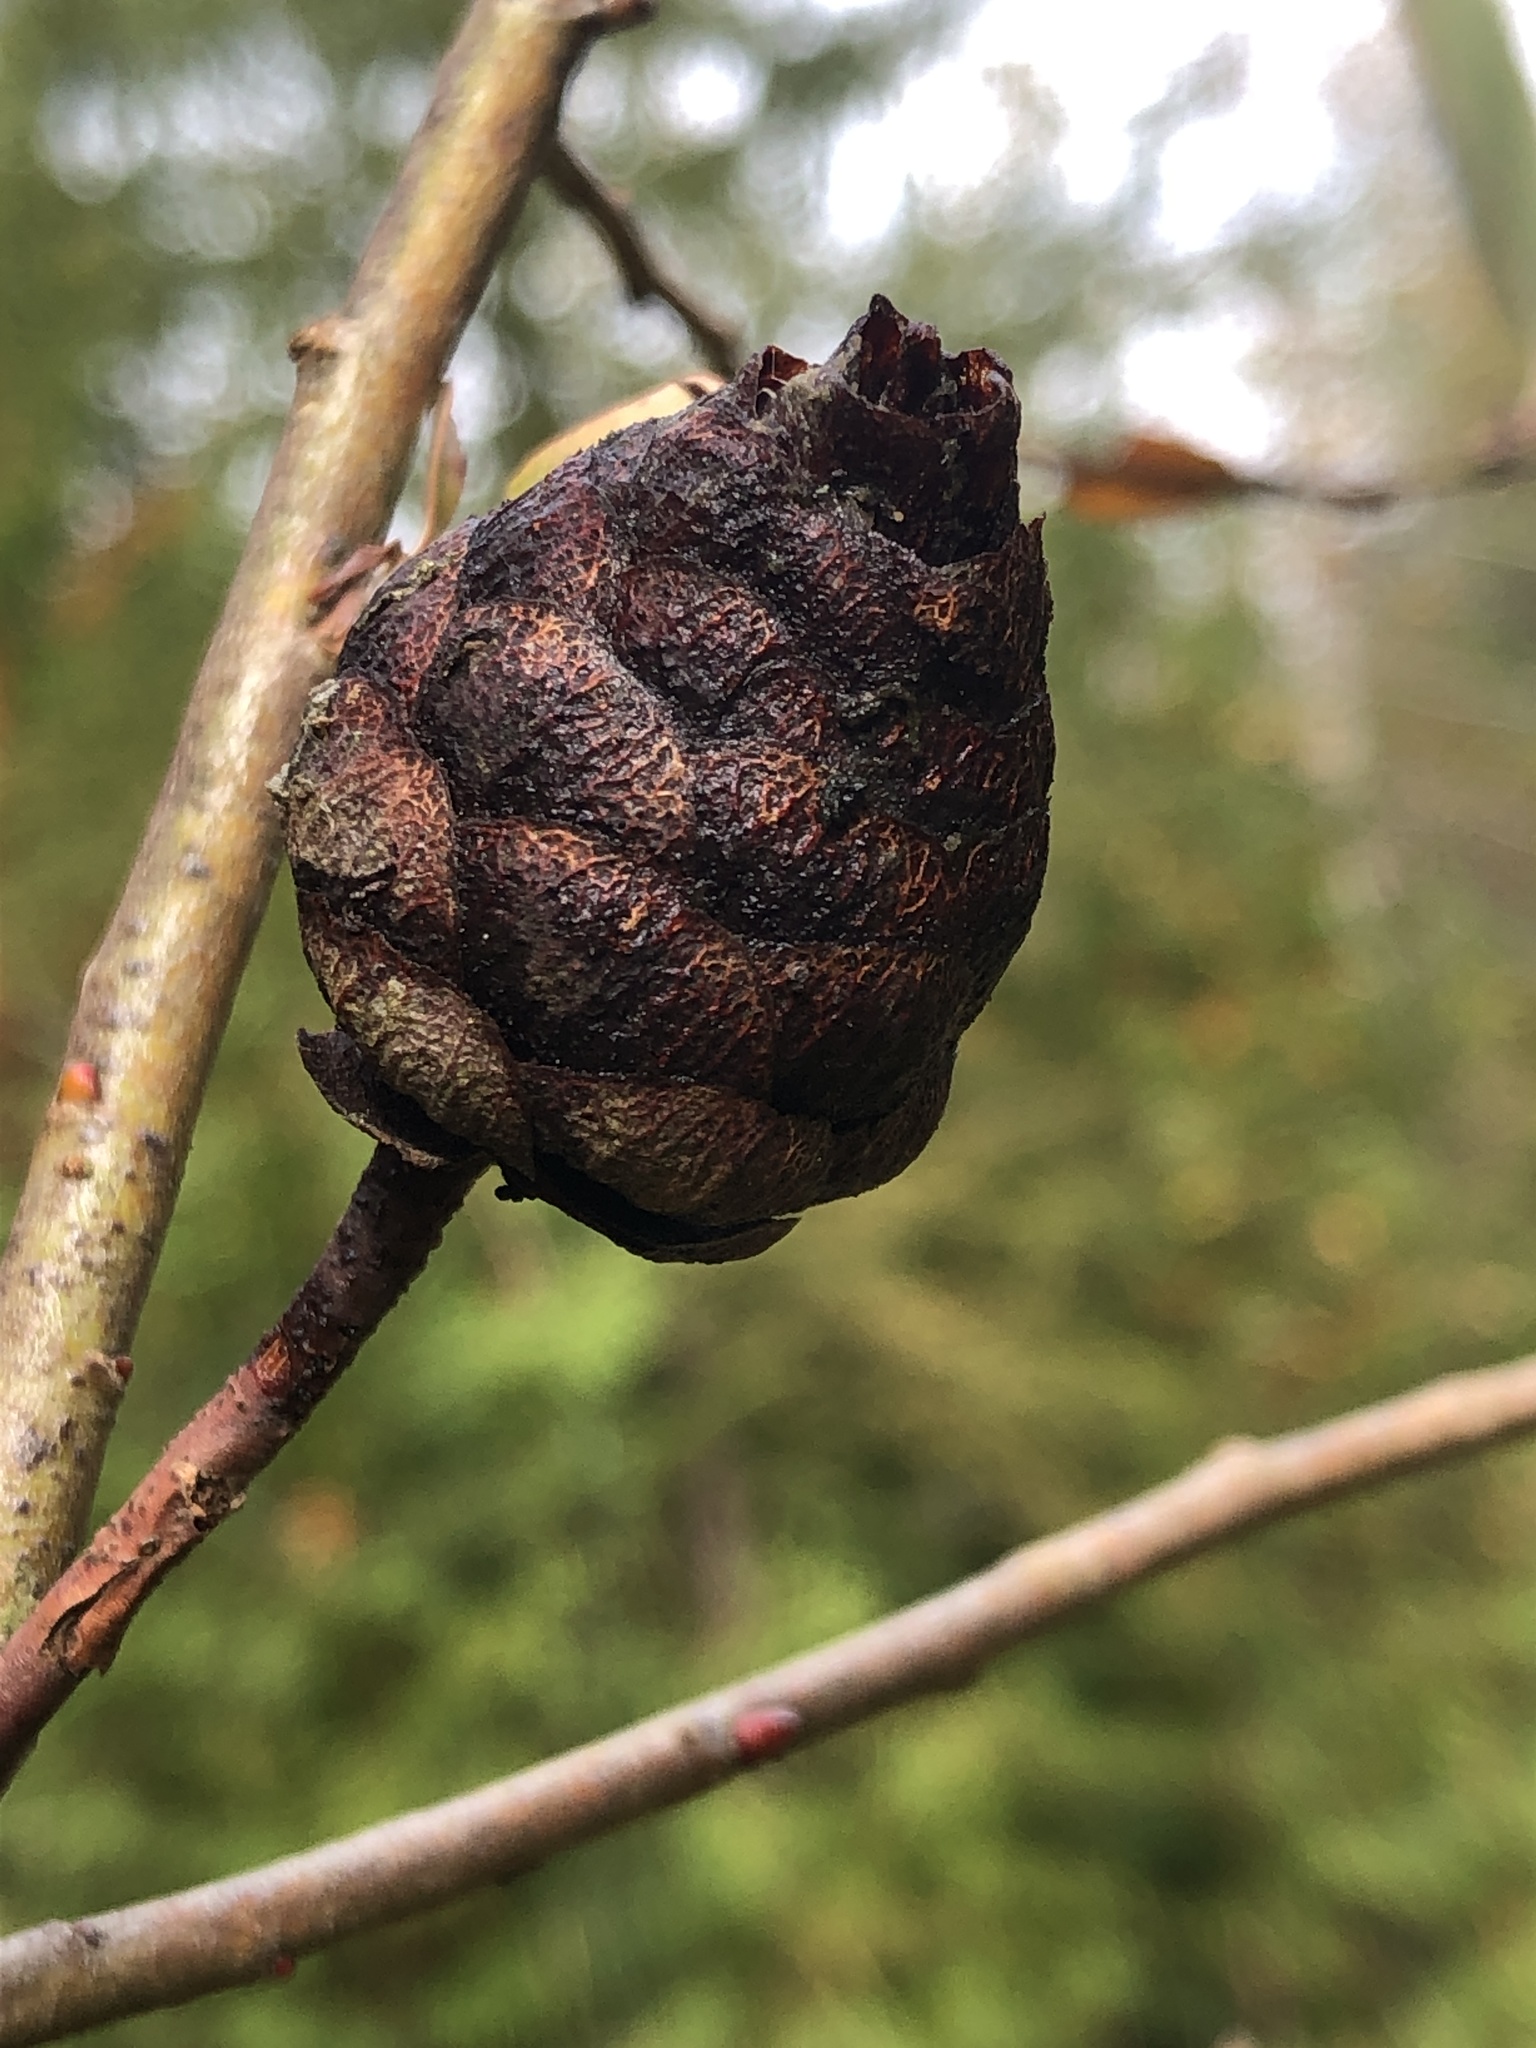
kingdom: Animalia
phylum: Arthropoda
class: Insecta
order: Diptera
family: Cecidomyiidae
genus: Rabdophaga
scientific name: Rabdophaga strobiloides
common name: Willow pinecone gall midge
